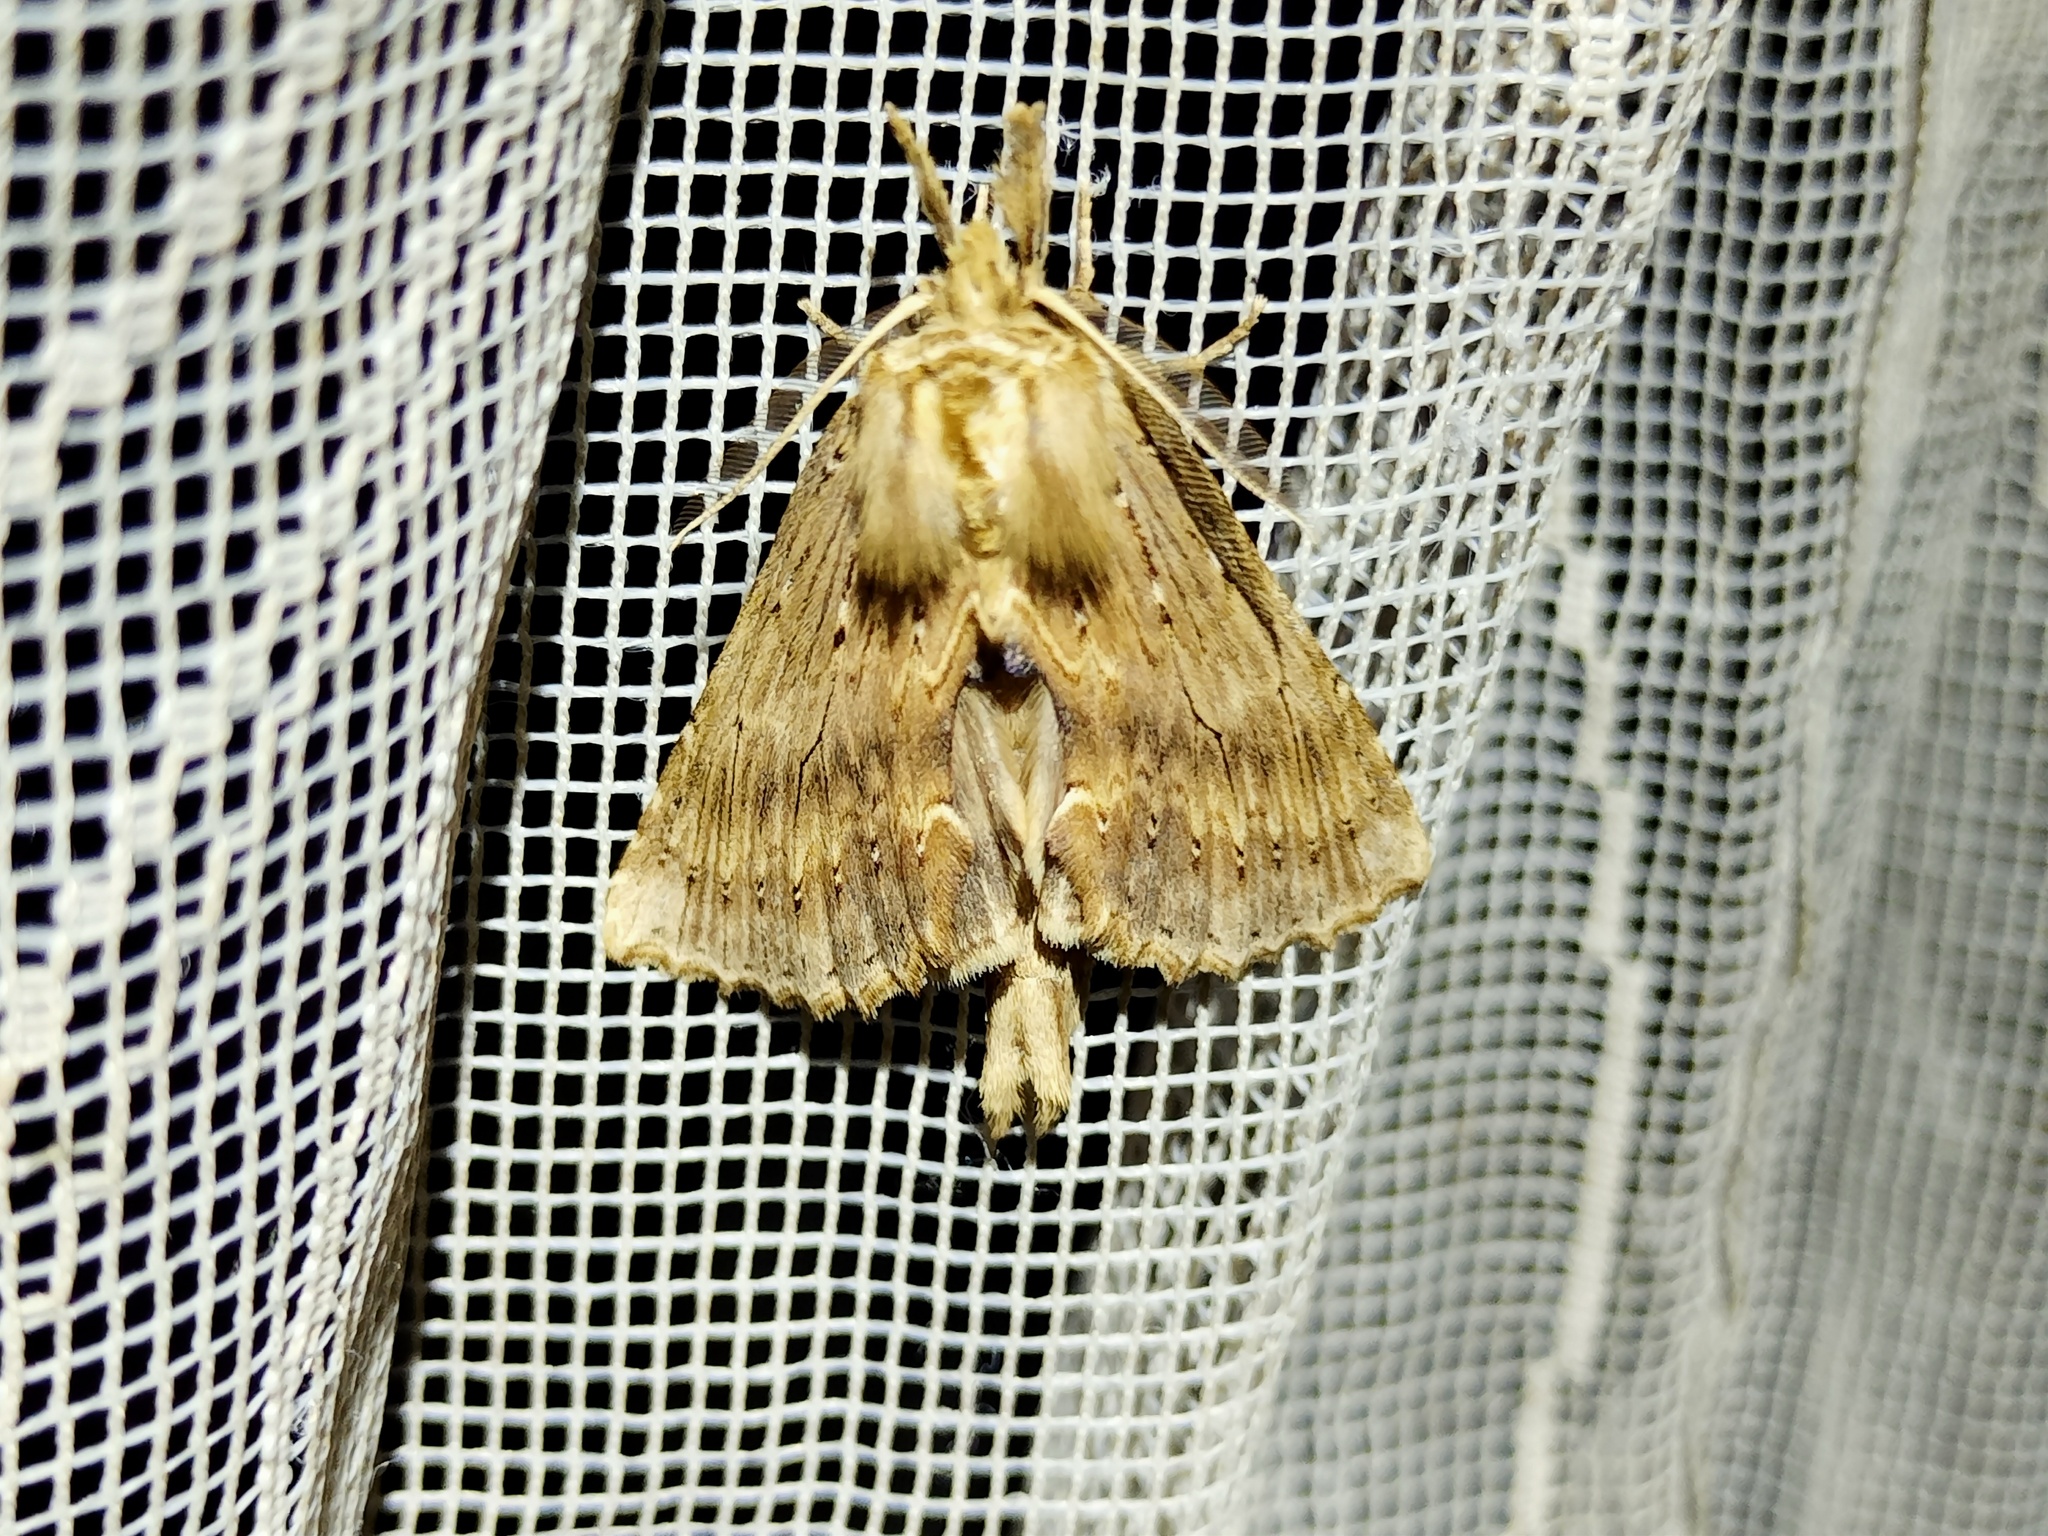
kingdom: Animalia
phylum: Arthropoda
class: Insecta
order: Lepidoptera
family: Notodontidae
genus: Pterostoma
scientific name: Pterostoma palpina
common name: Pale prominent
